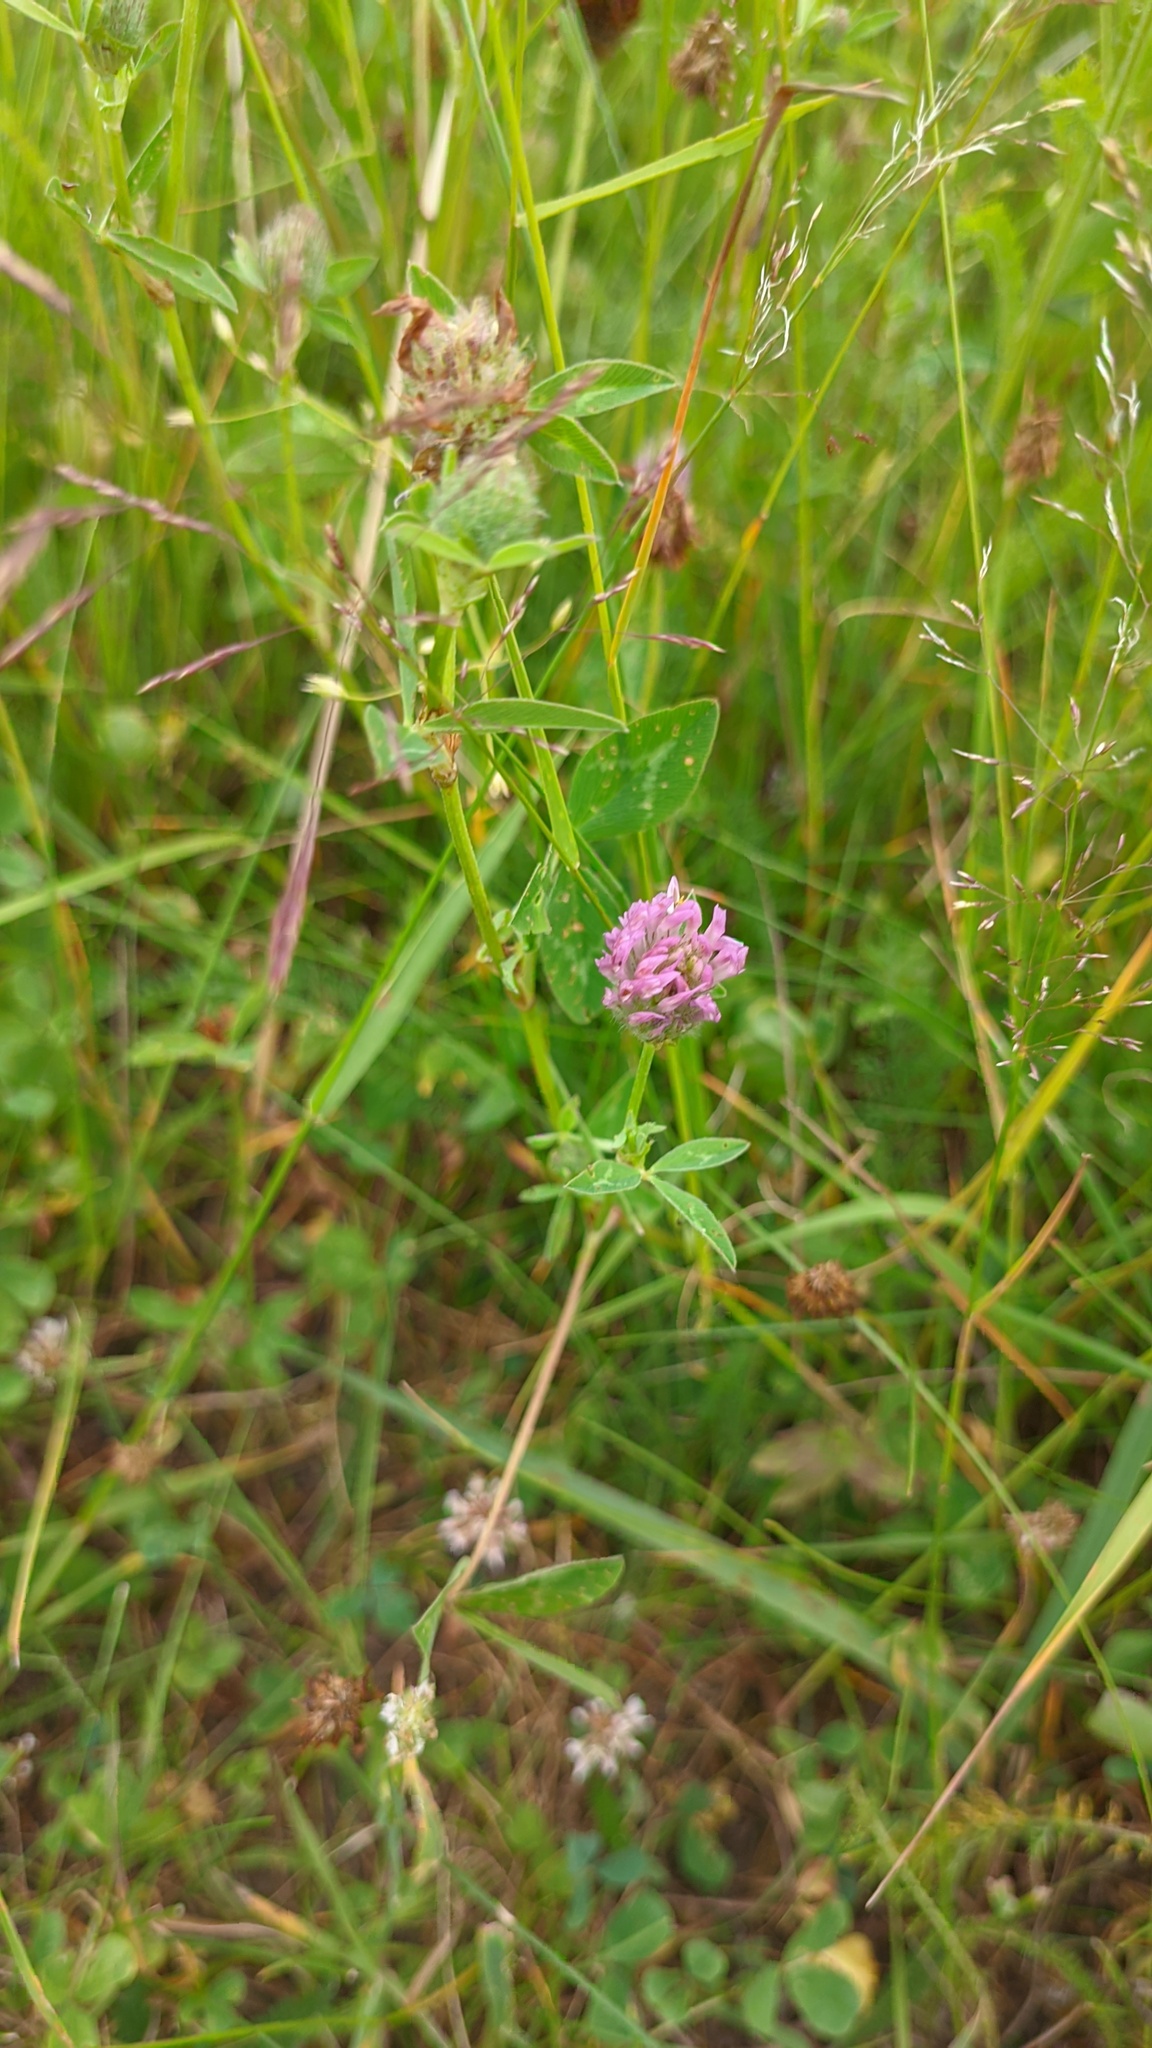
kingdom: Plantae
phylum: Tracheophyta
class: Magnoliopsida
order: Fabales
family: Fabaceae
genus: Trifolium
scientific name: Trifolium pratense
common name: Red clover
